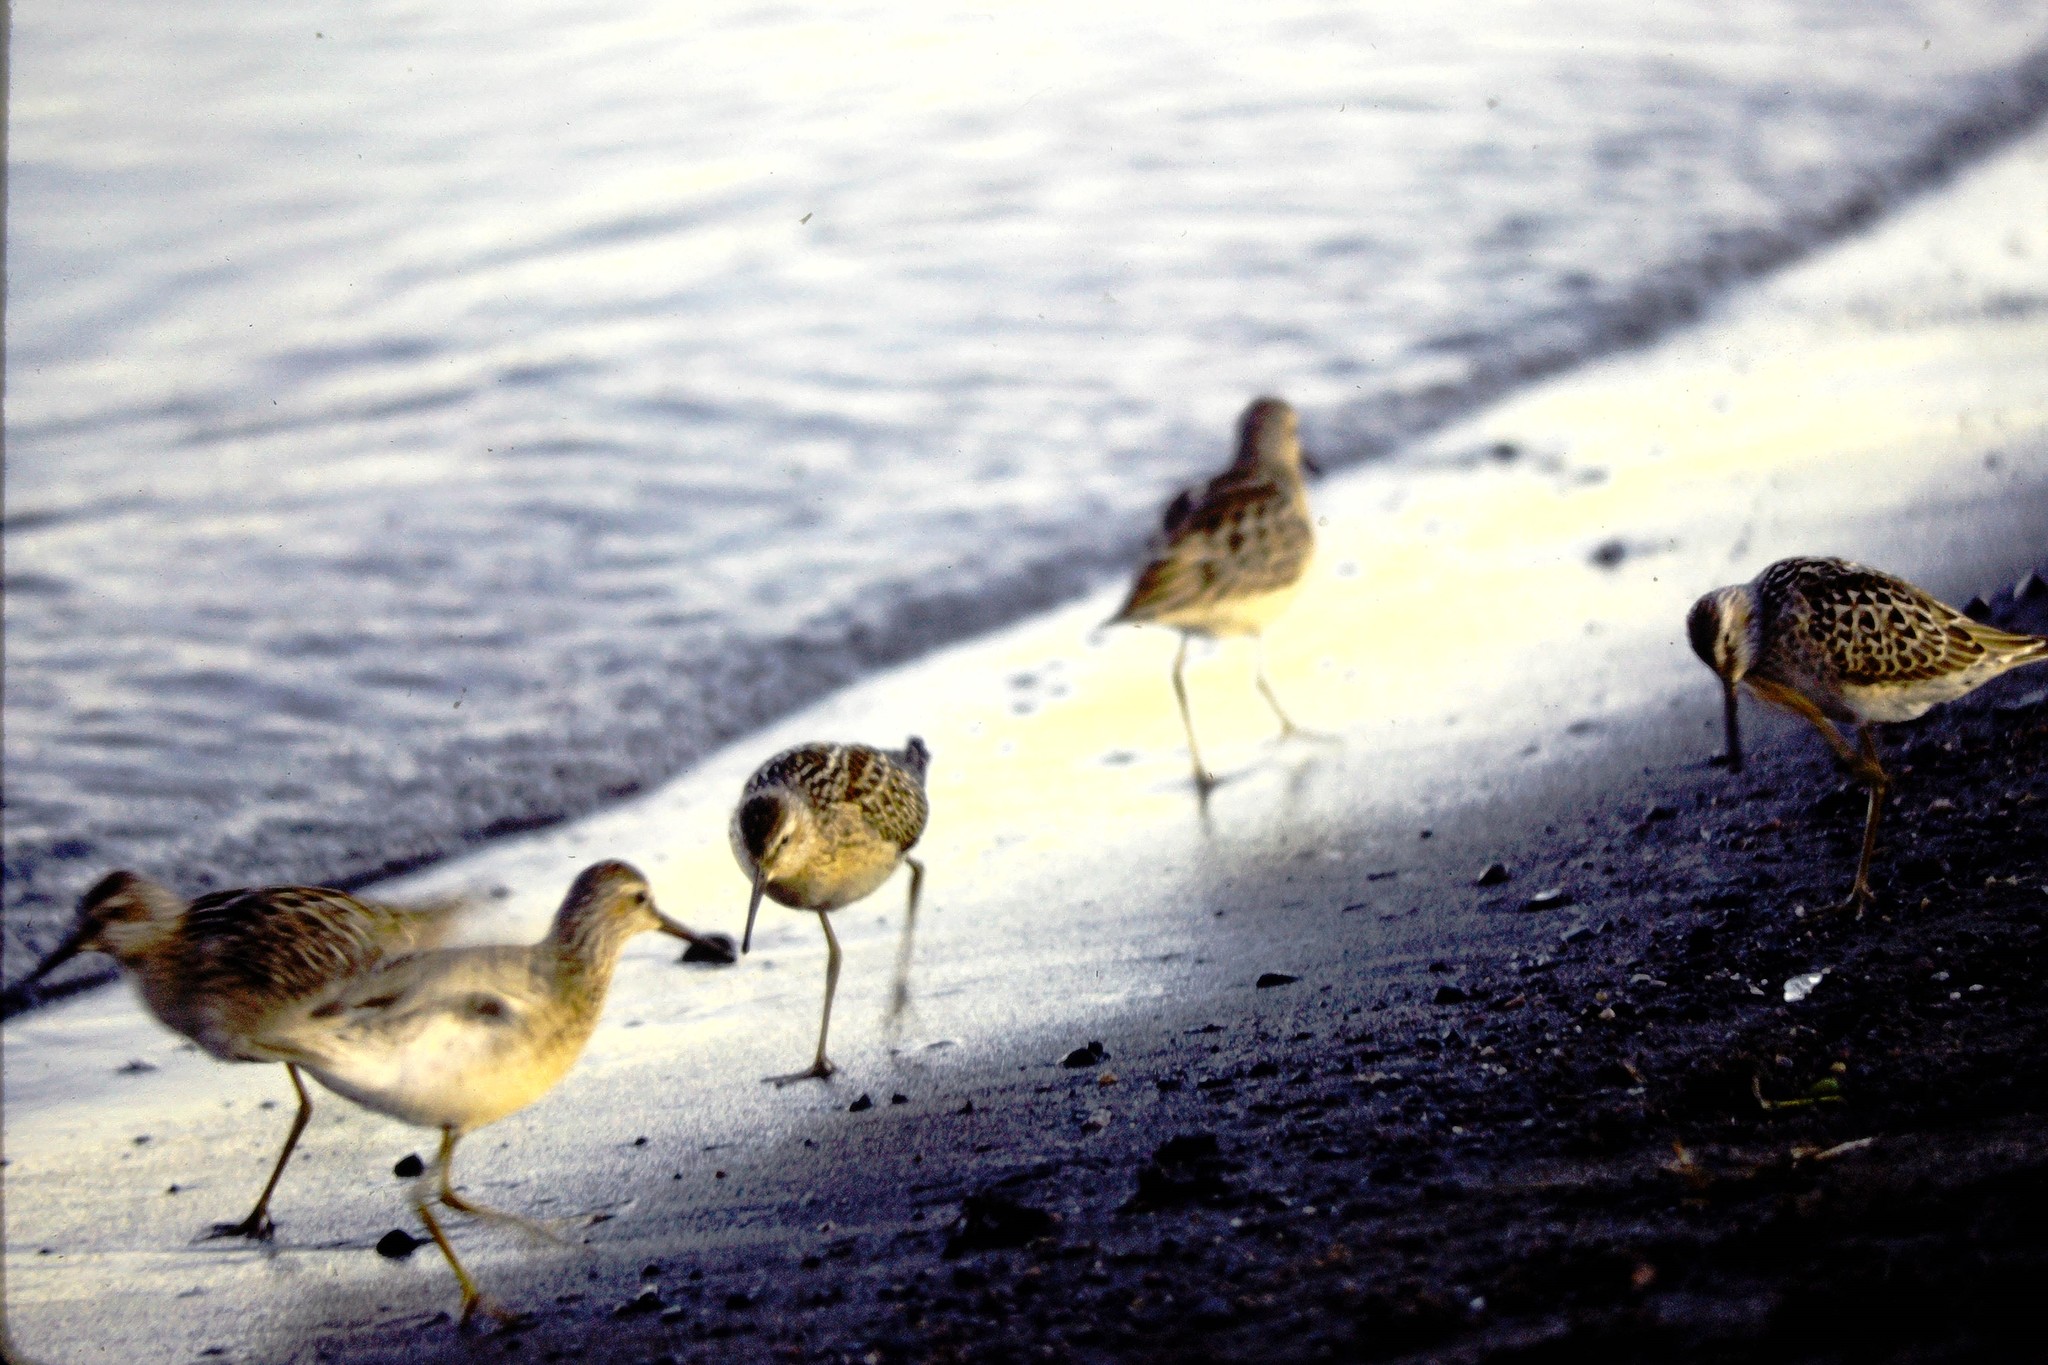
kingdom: Animalia
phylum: Chordata
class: Aves
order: Charadriiformes
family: Scolopacidae
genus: Calidris
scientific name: Calidris himantopus
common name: Stilt sandpiper
